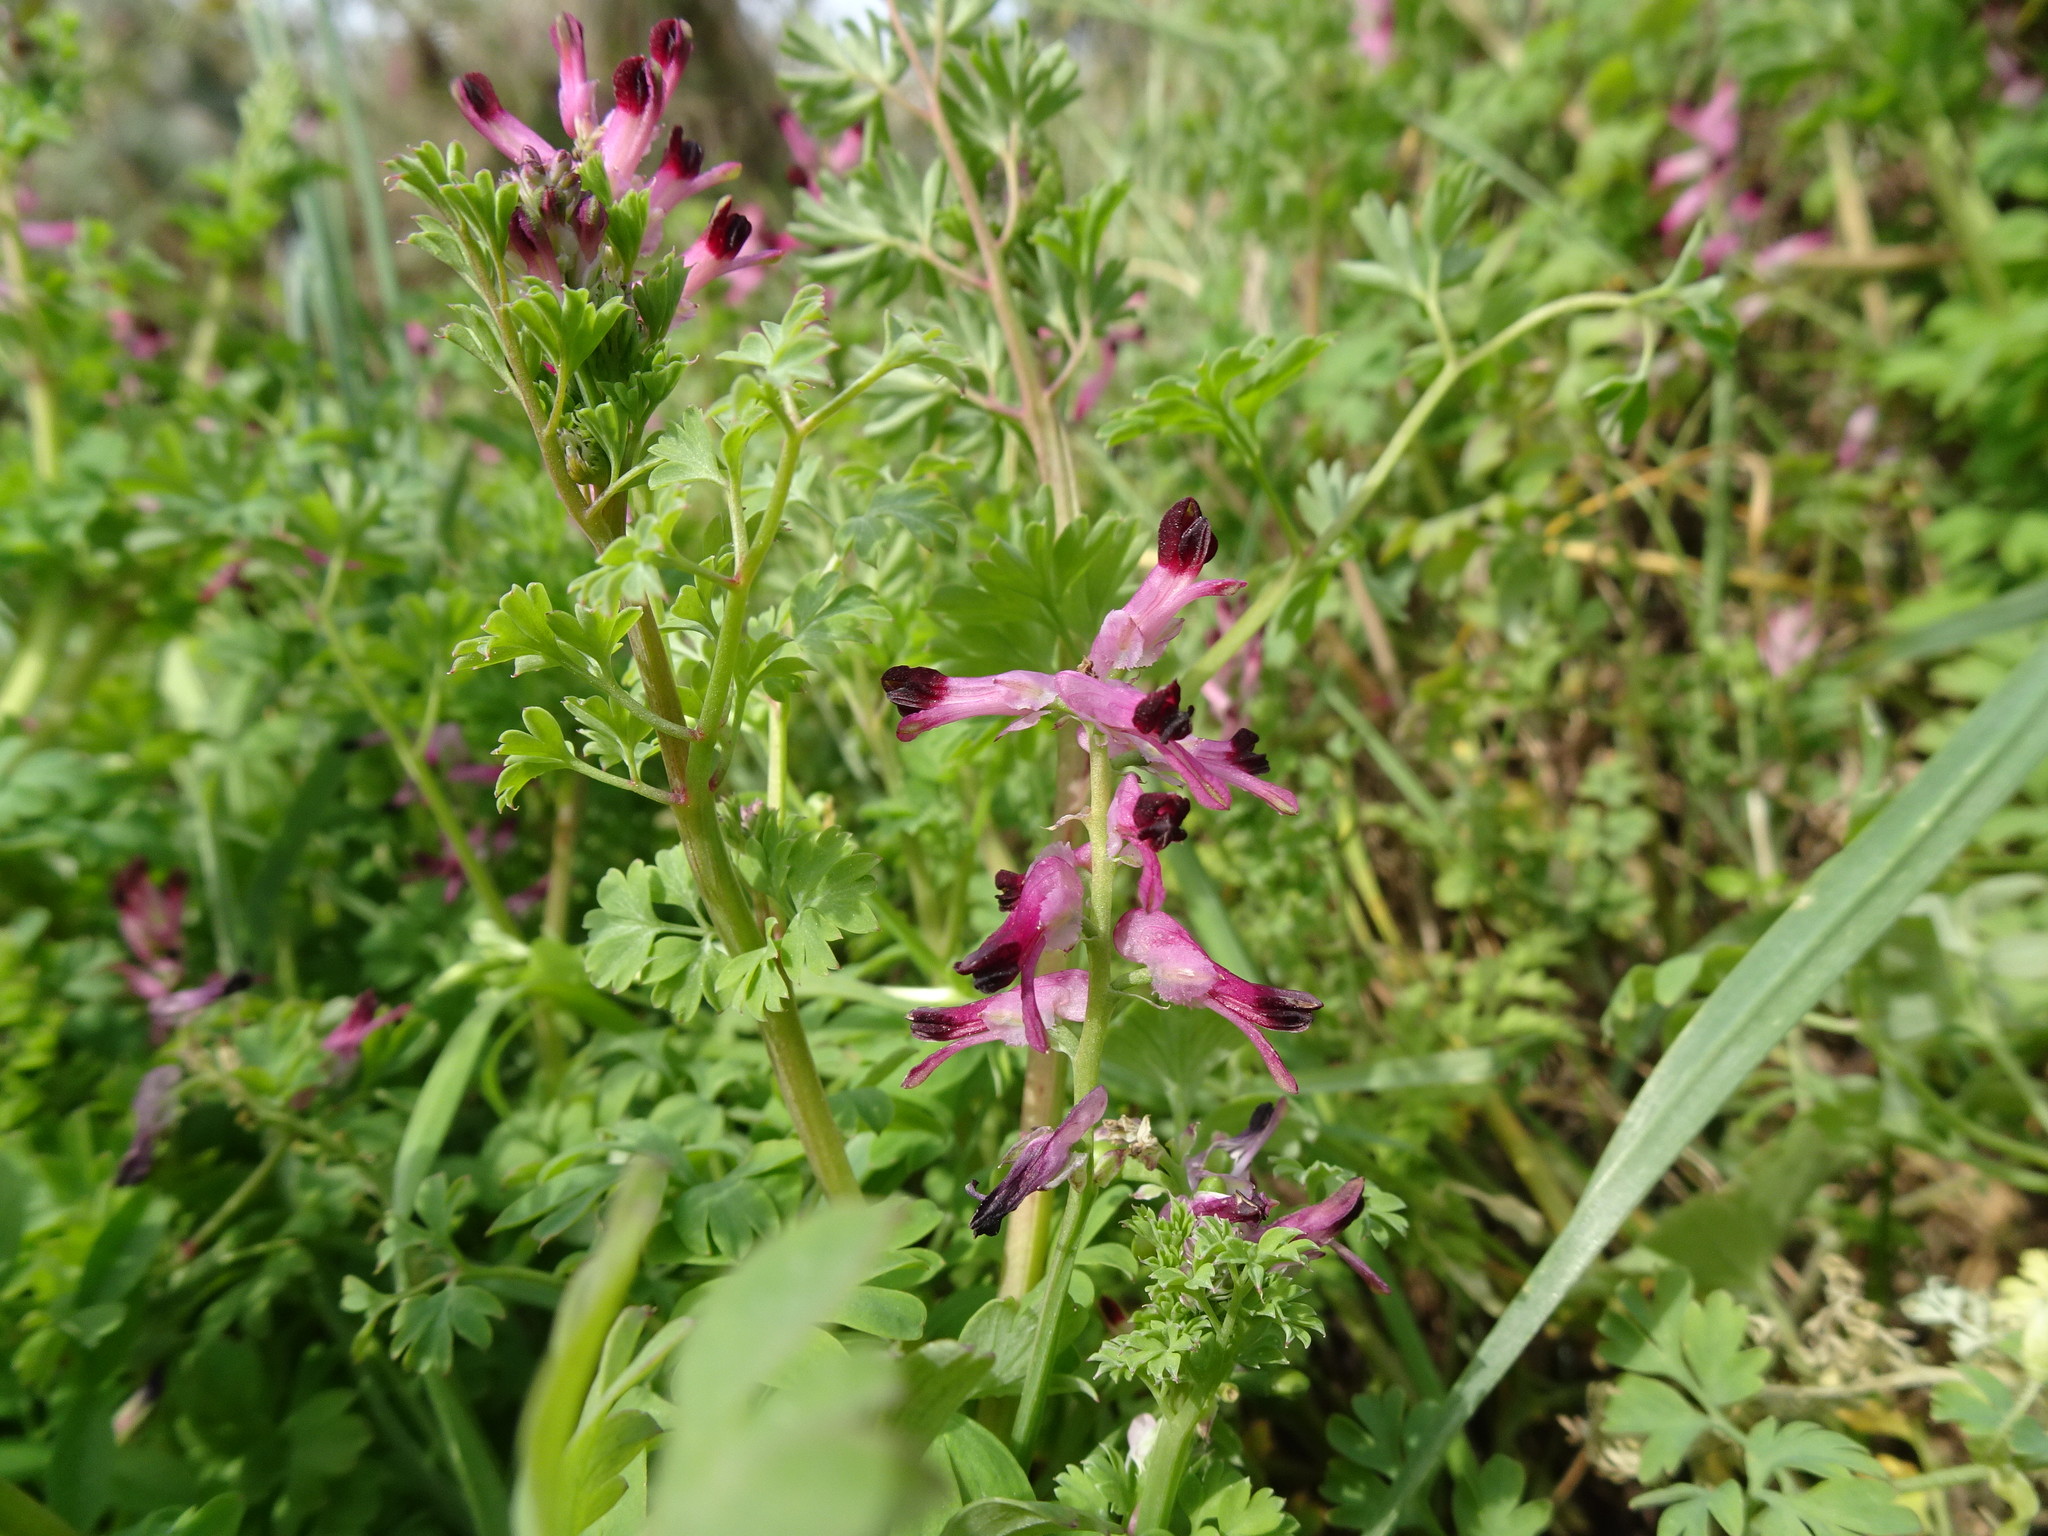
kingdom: Plantae
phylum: Tracheophyta
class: Magnoliopsida
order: Ranunculales
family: Papaveraceae
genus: Fumaria
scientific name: Fumaria officinalis
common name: Common fumitory
